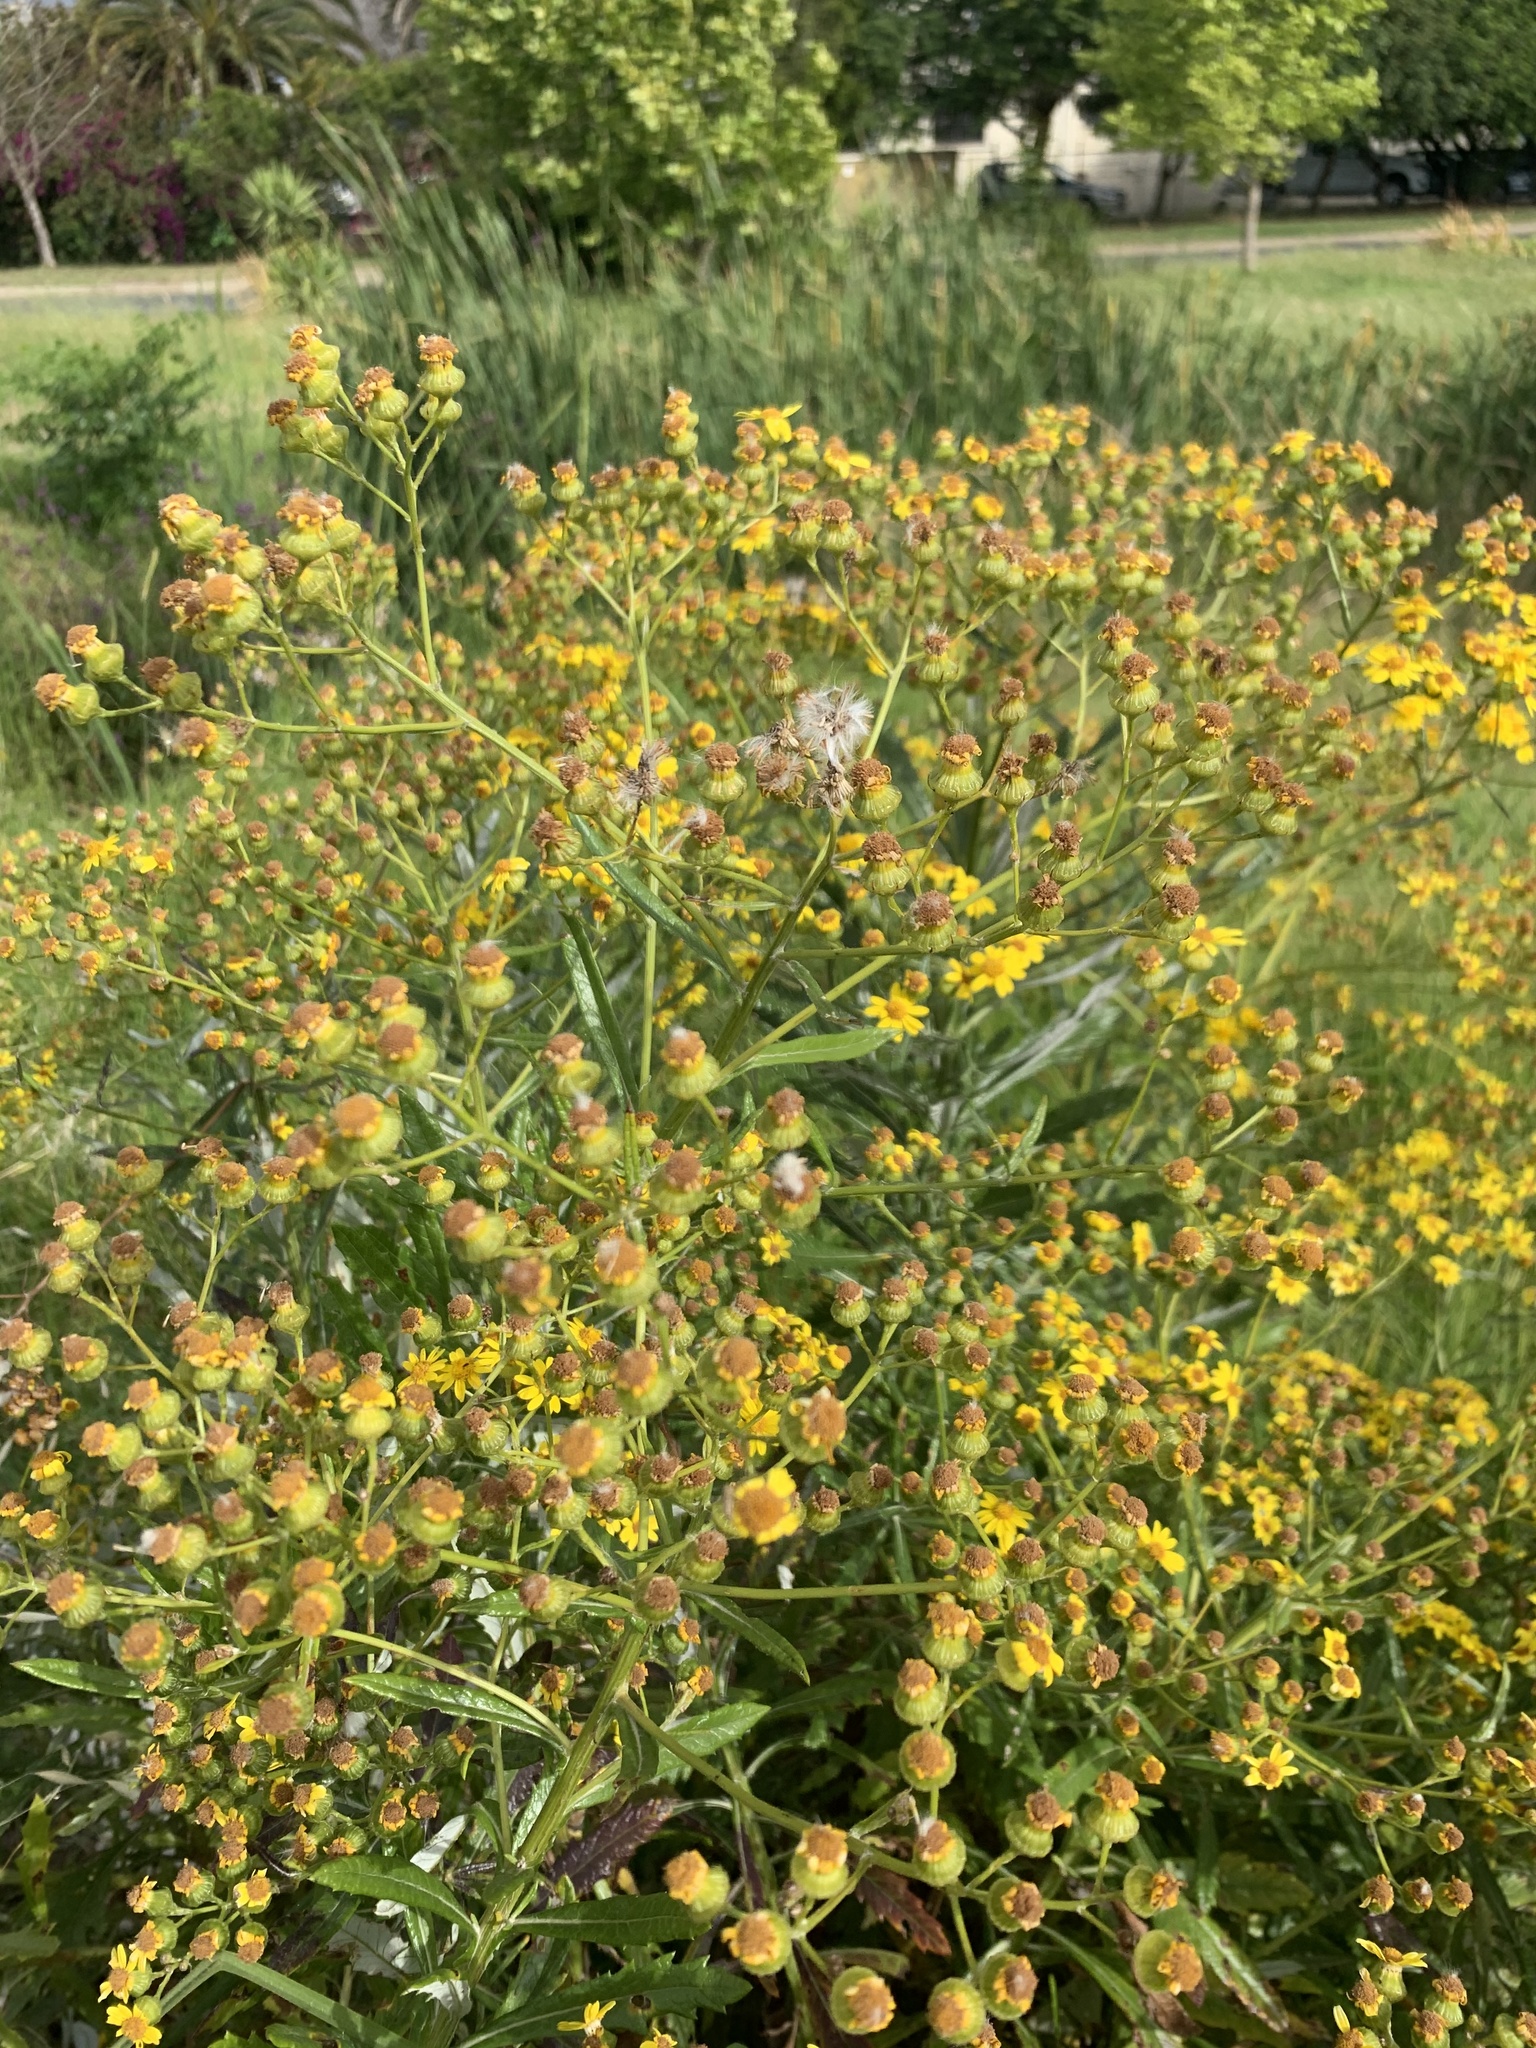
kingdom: Plantae
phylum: Tracheophyta
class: Magnoliopsida
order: Asterales
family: Asteraceae
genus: Senecio
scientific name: Senecio pterophorus
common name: Shoddy ragwort
